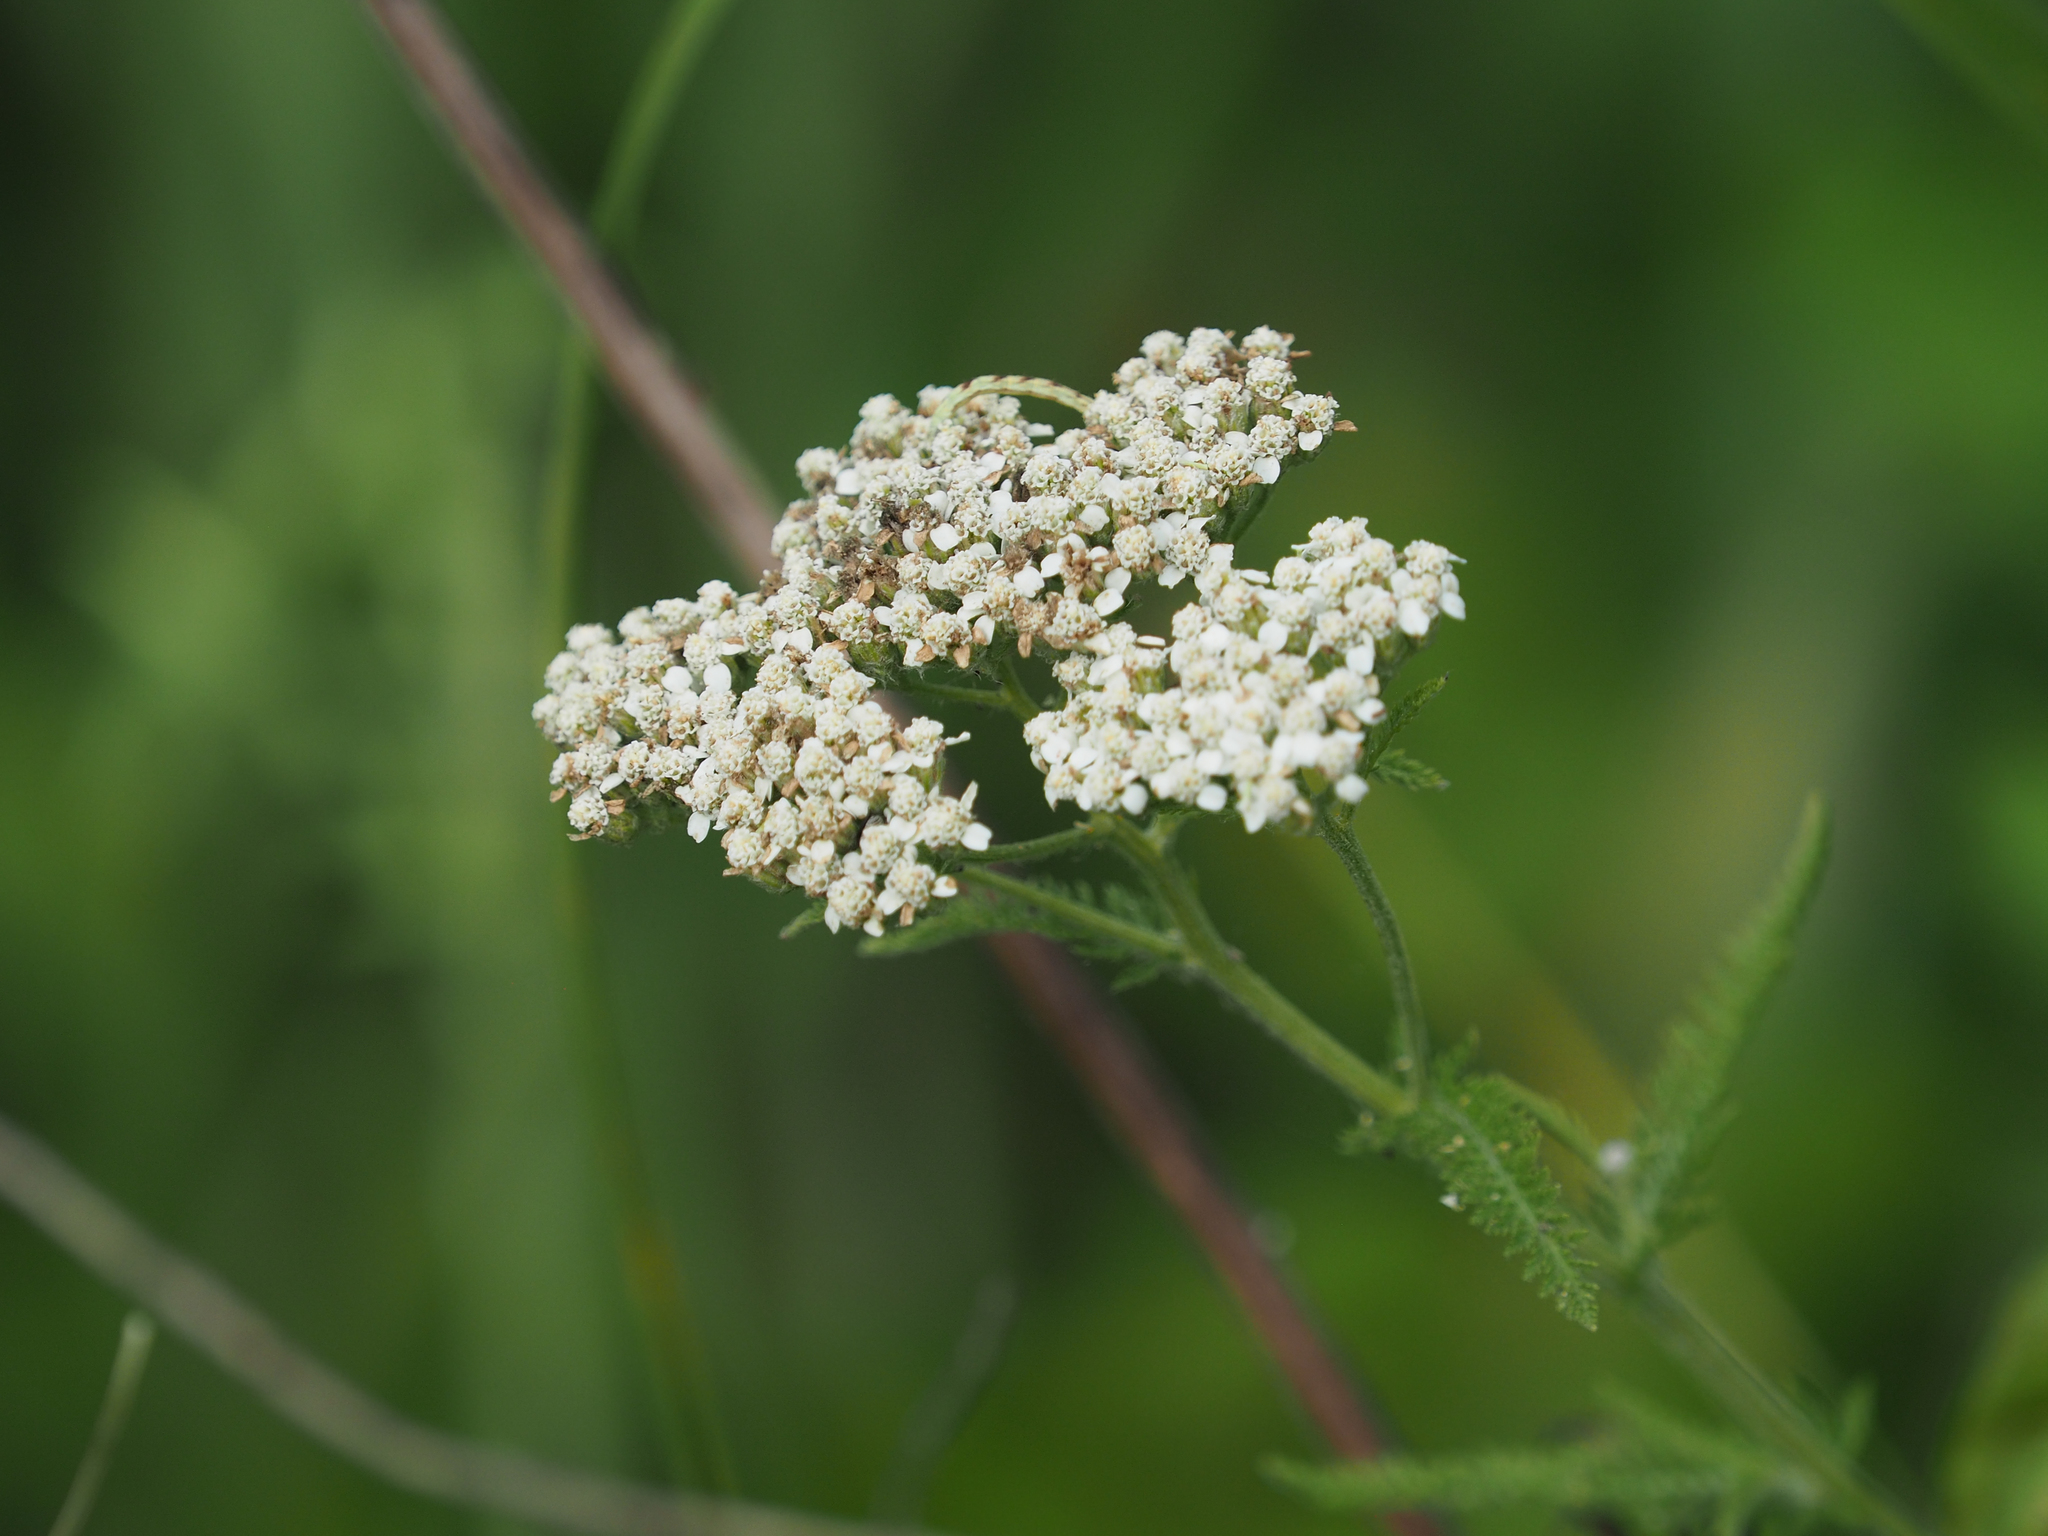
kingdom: Plantae
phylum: Tracheophyta
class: Magnoliopsida
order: Asterales
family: Asteraceae
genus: Achillea
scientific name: Achillea millefolium
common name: Yarrow
